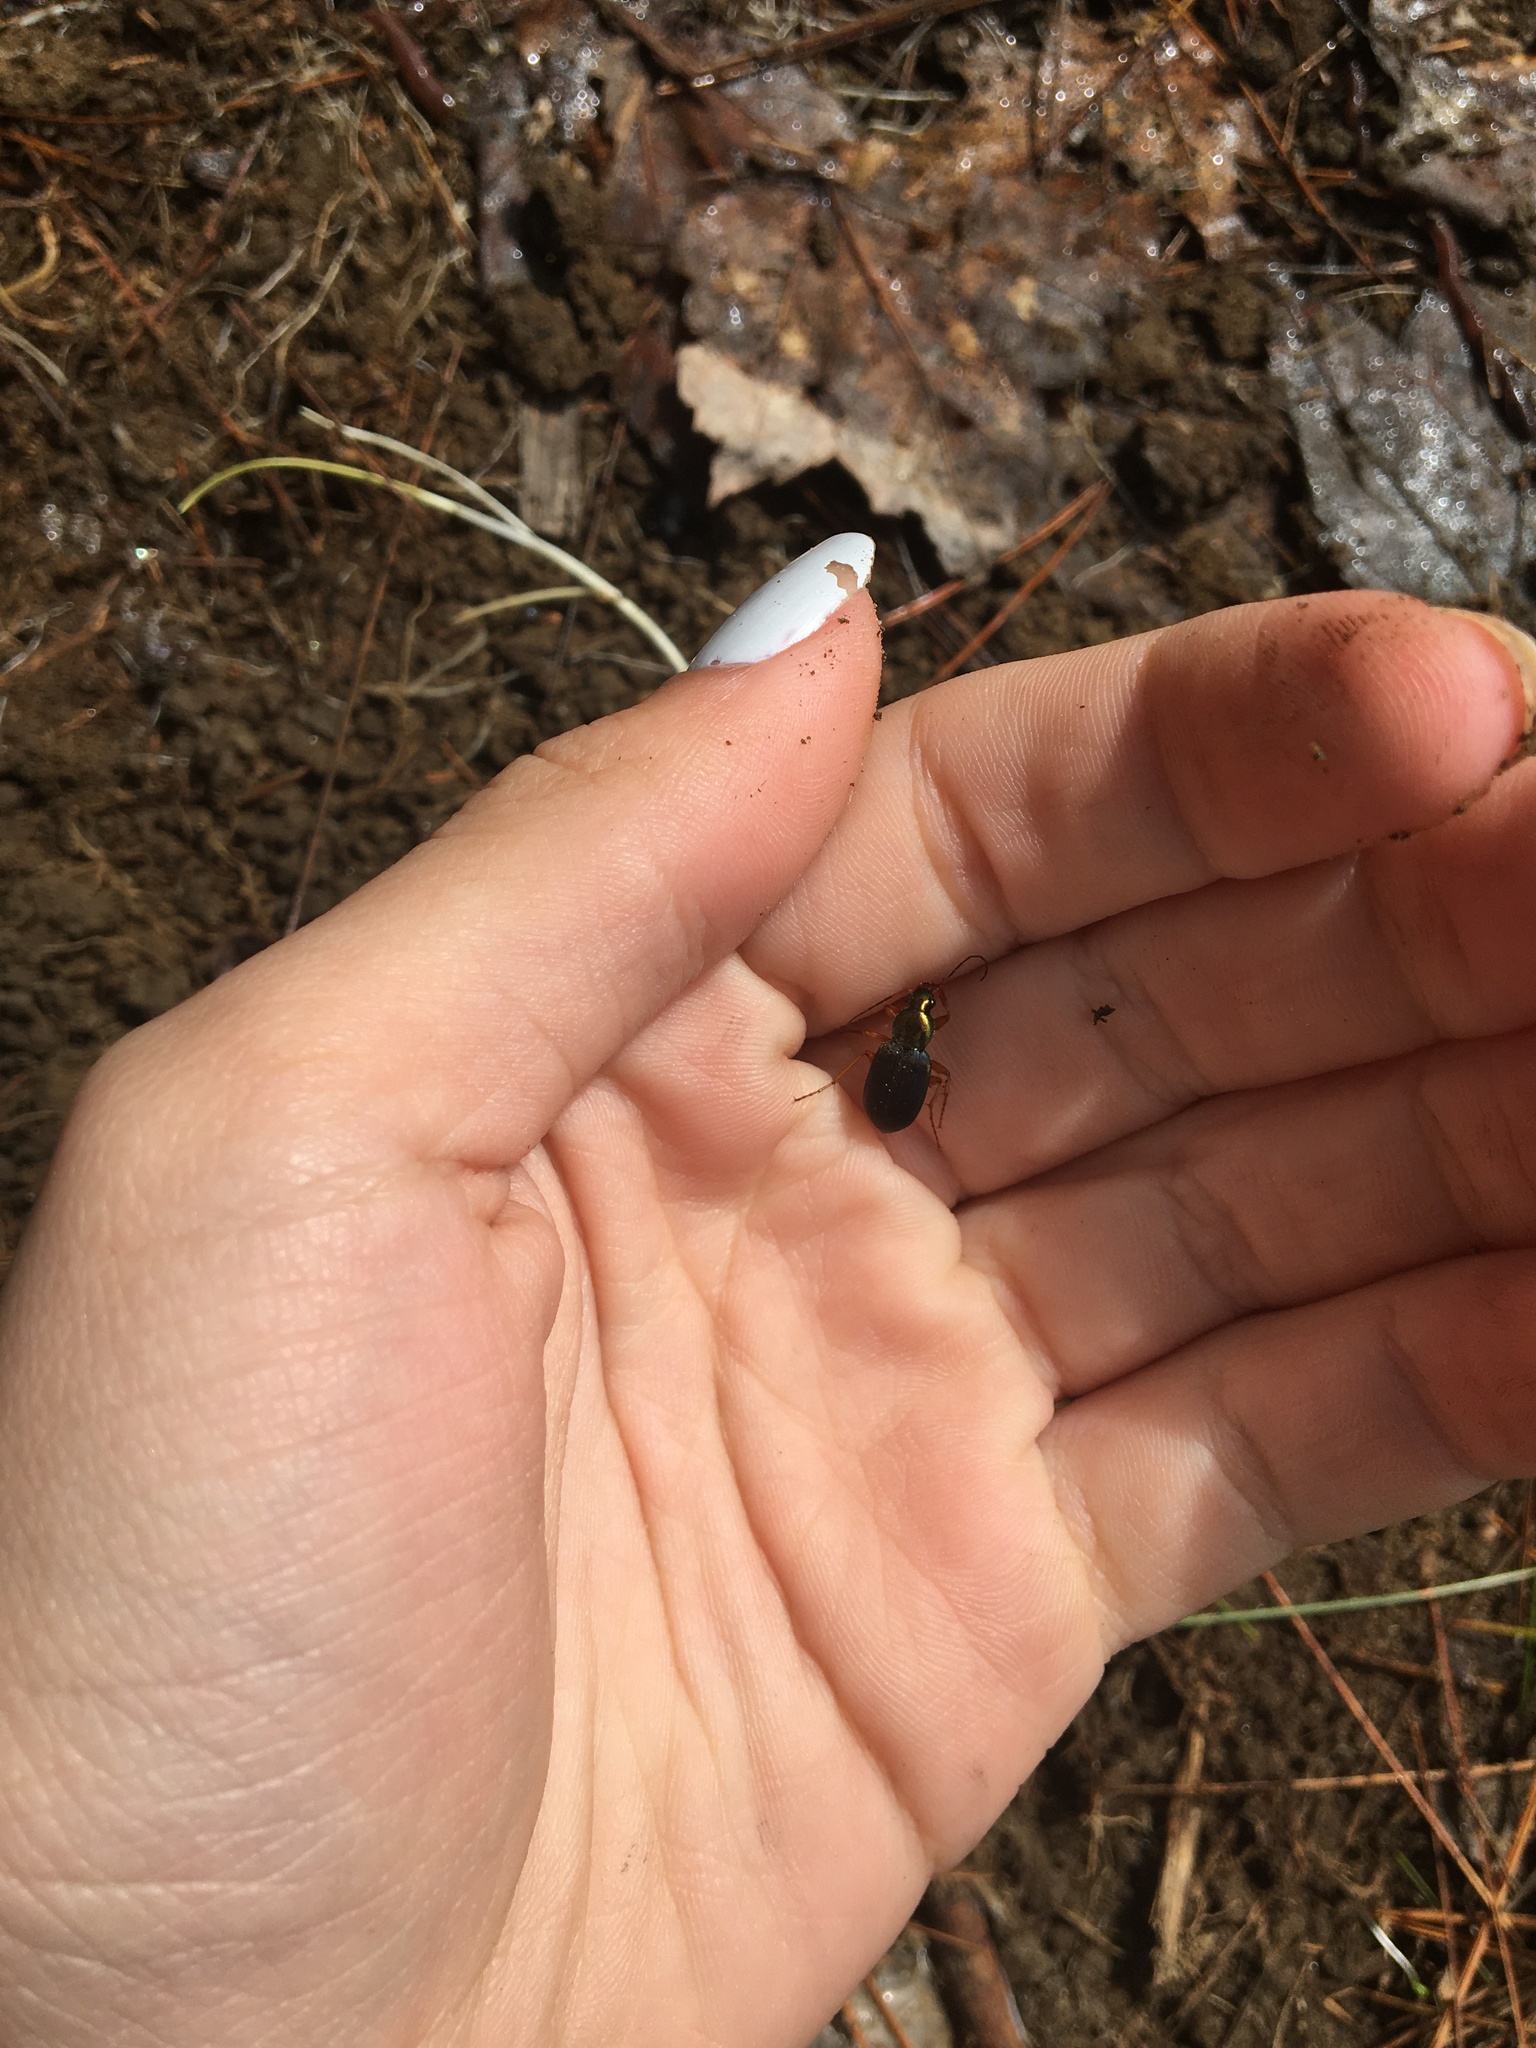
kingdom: Animalia
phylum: Arthropoda
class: Insecta
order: Coleoptera
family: Carabidae
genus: Chlaenius
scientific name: Chlaenius tricolor
